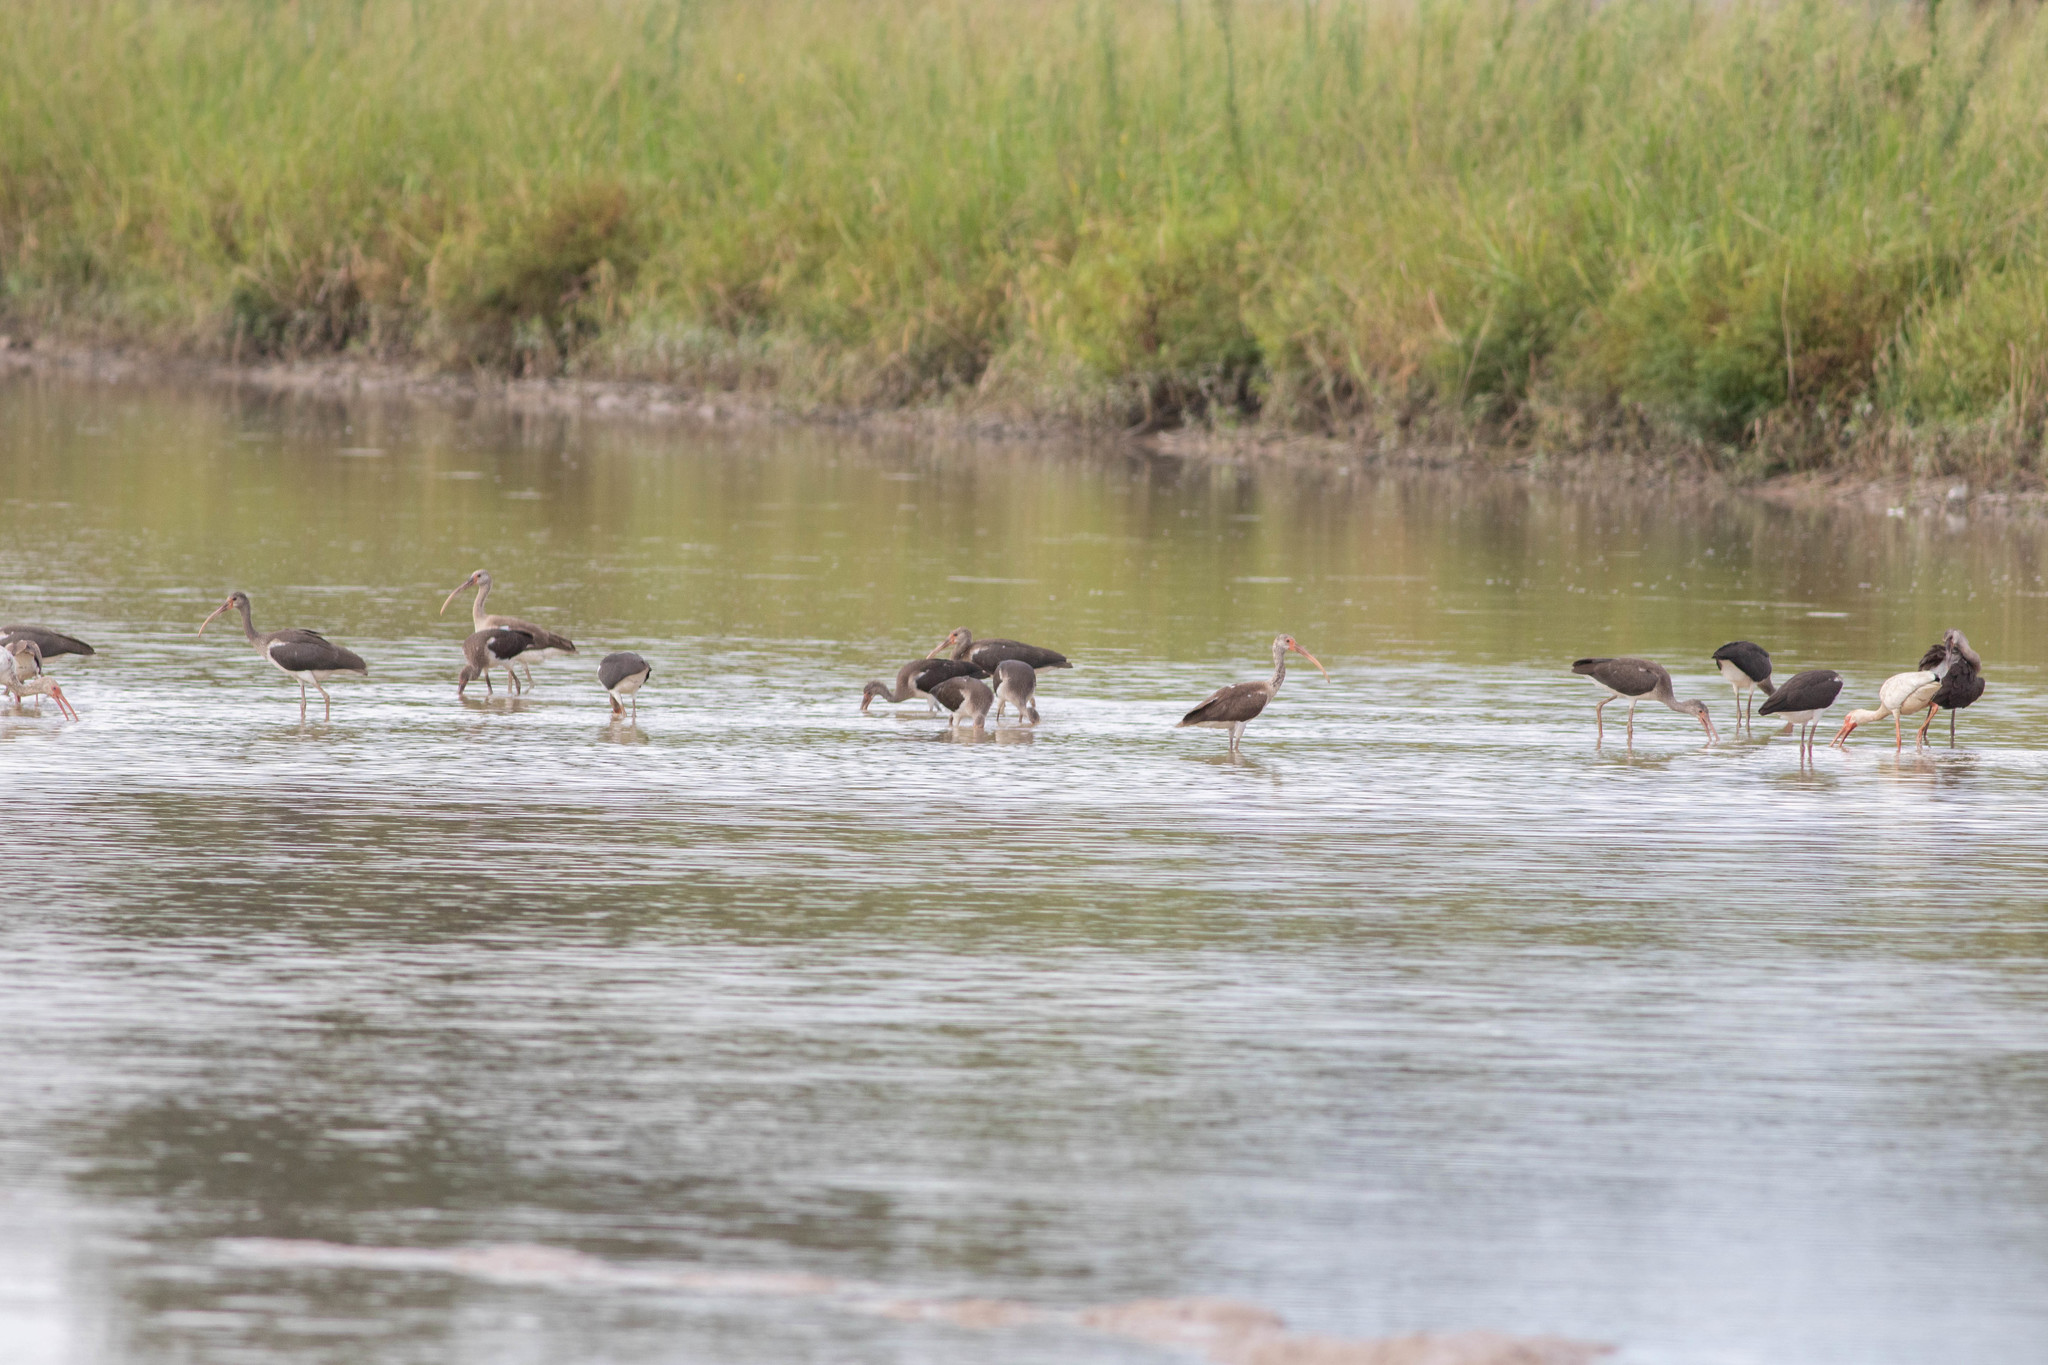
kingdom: Animalia
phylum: Chordata
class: Aves
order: Pelecaniformes
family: Threskiornithidae
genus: Eudocimus
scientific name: Eudocimus albus
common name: White ibis
